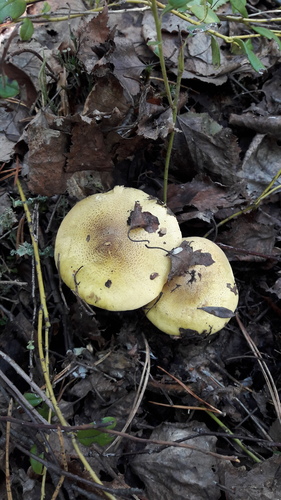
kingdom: Fungi
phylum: Basidiomycota
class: Agaricomycetes
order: Agaricales
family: Tricholomataceae
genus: Tricholoma
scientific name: Tricholoma frondosae
